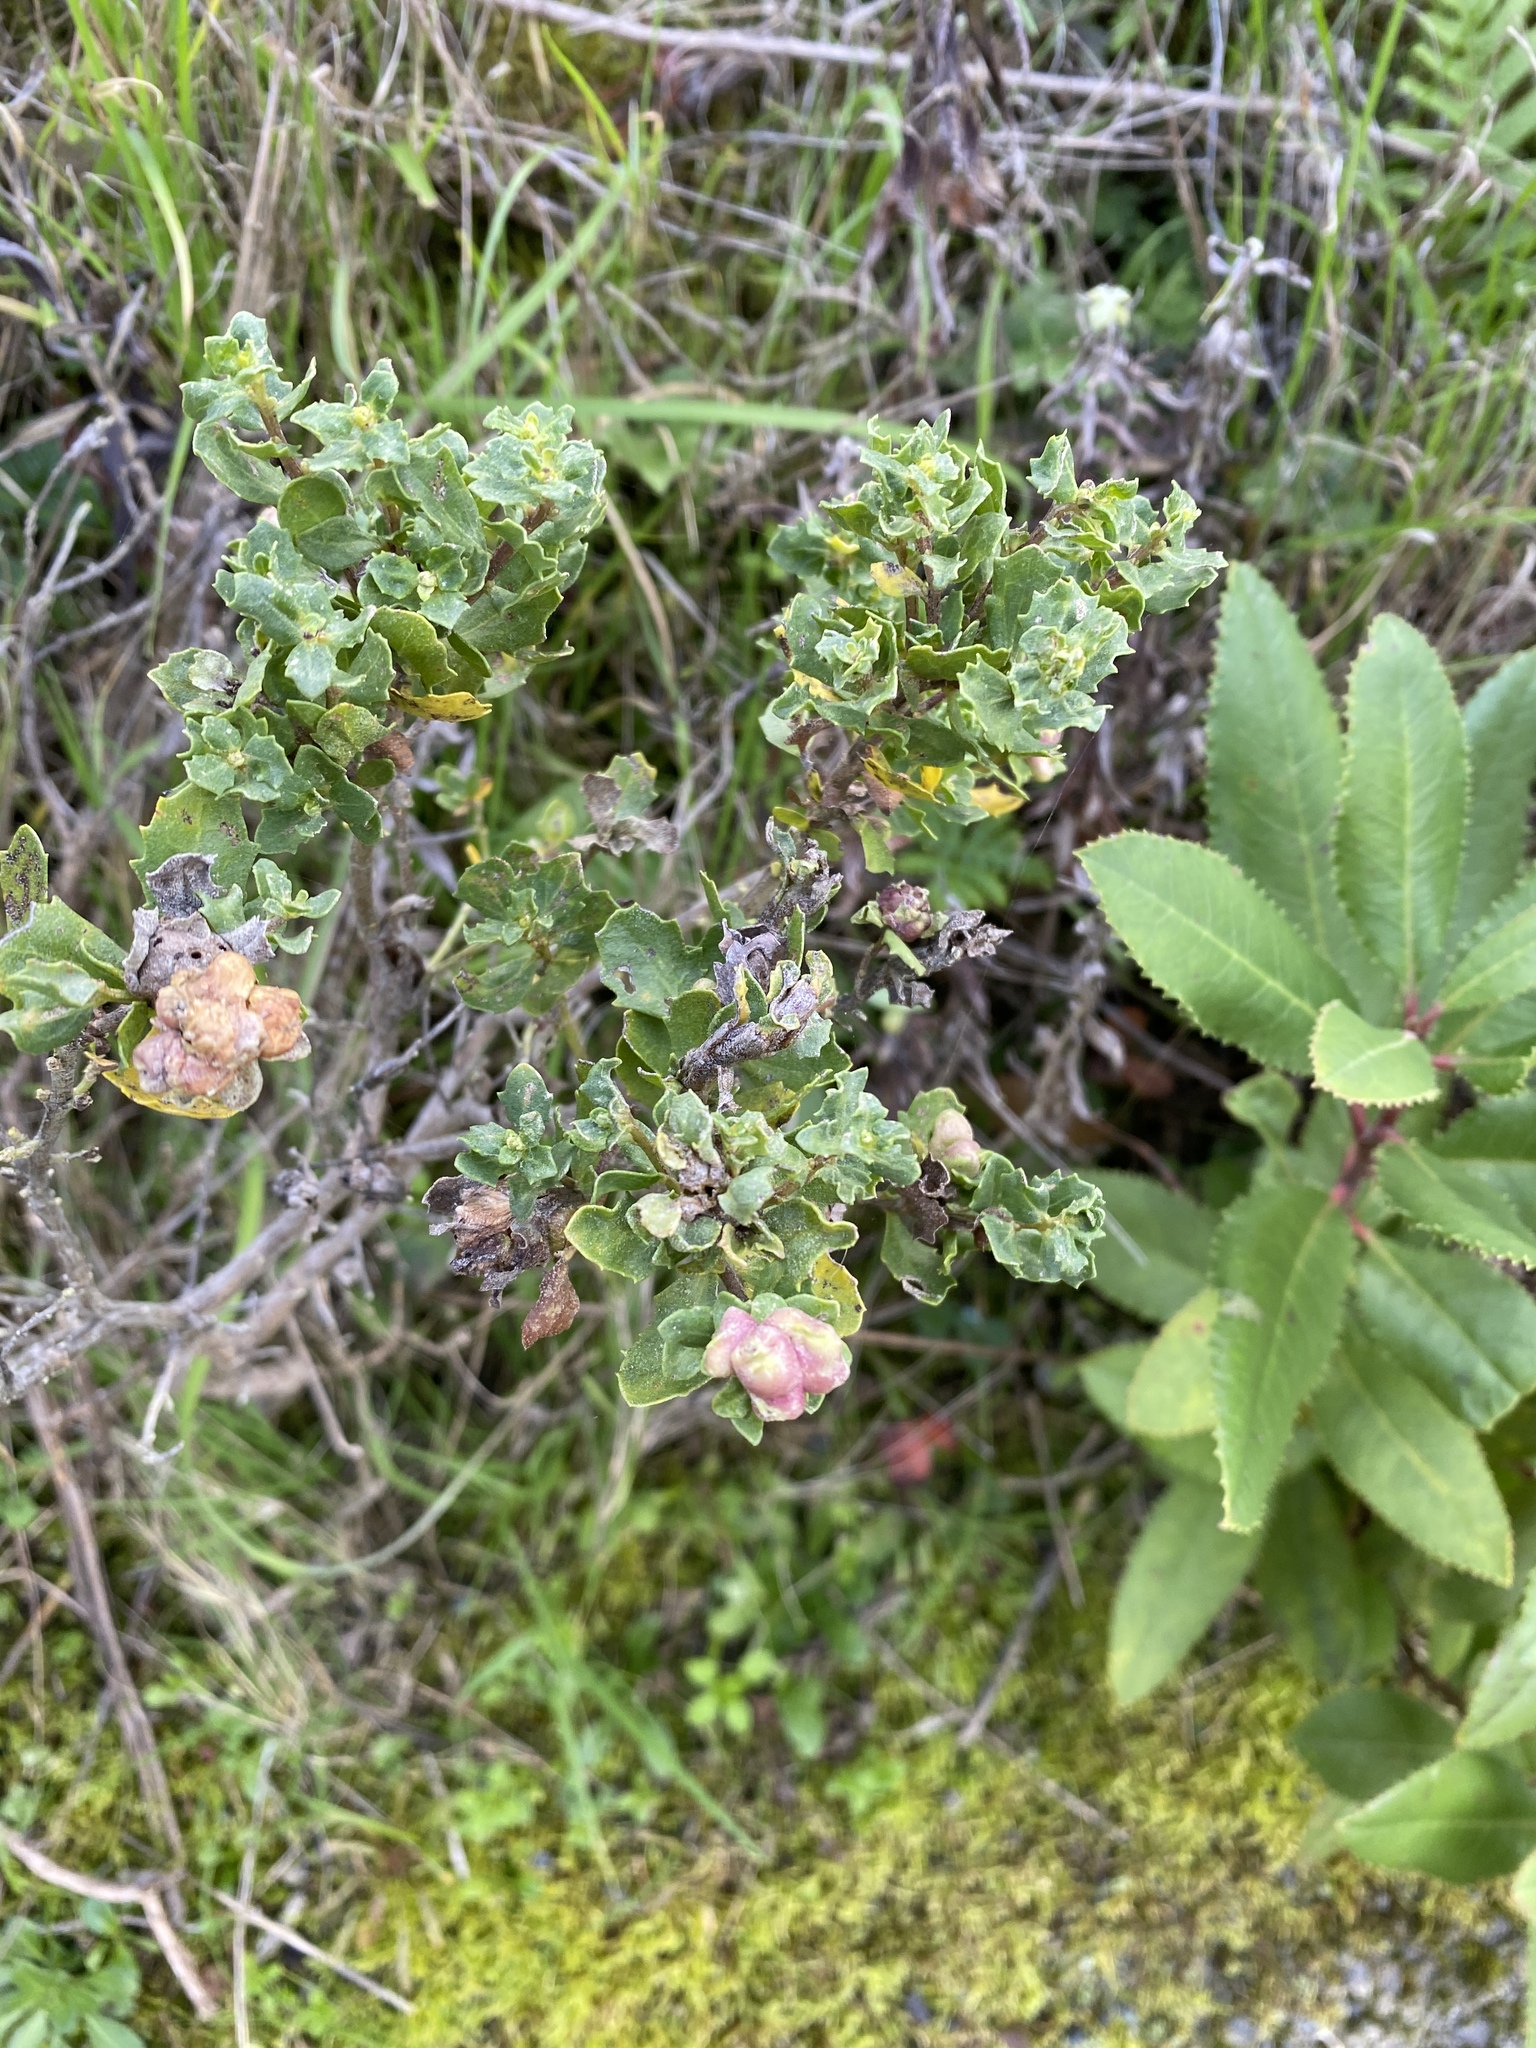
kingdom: Animalia
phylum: Arthropoda
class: Insecta
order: Diptera
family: Cecidomyiidae
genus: Rhopalomyia
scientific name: Rhopalomyia californica
